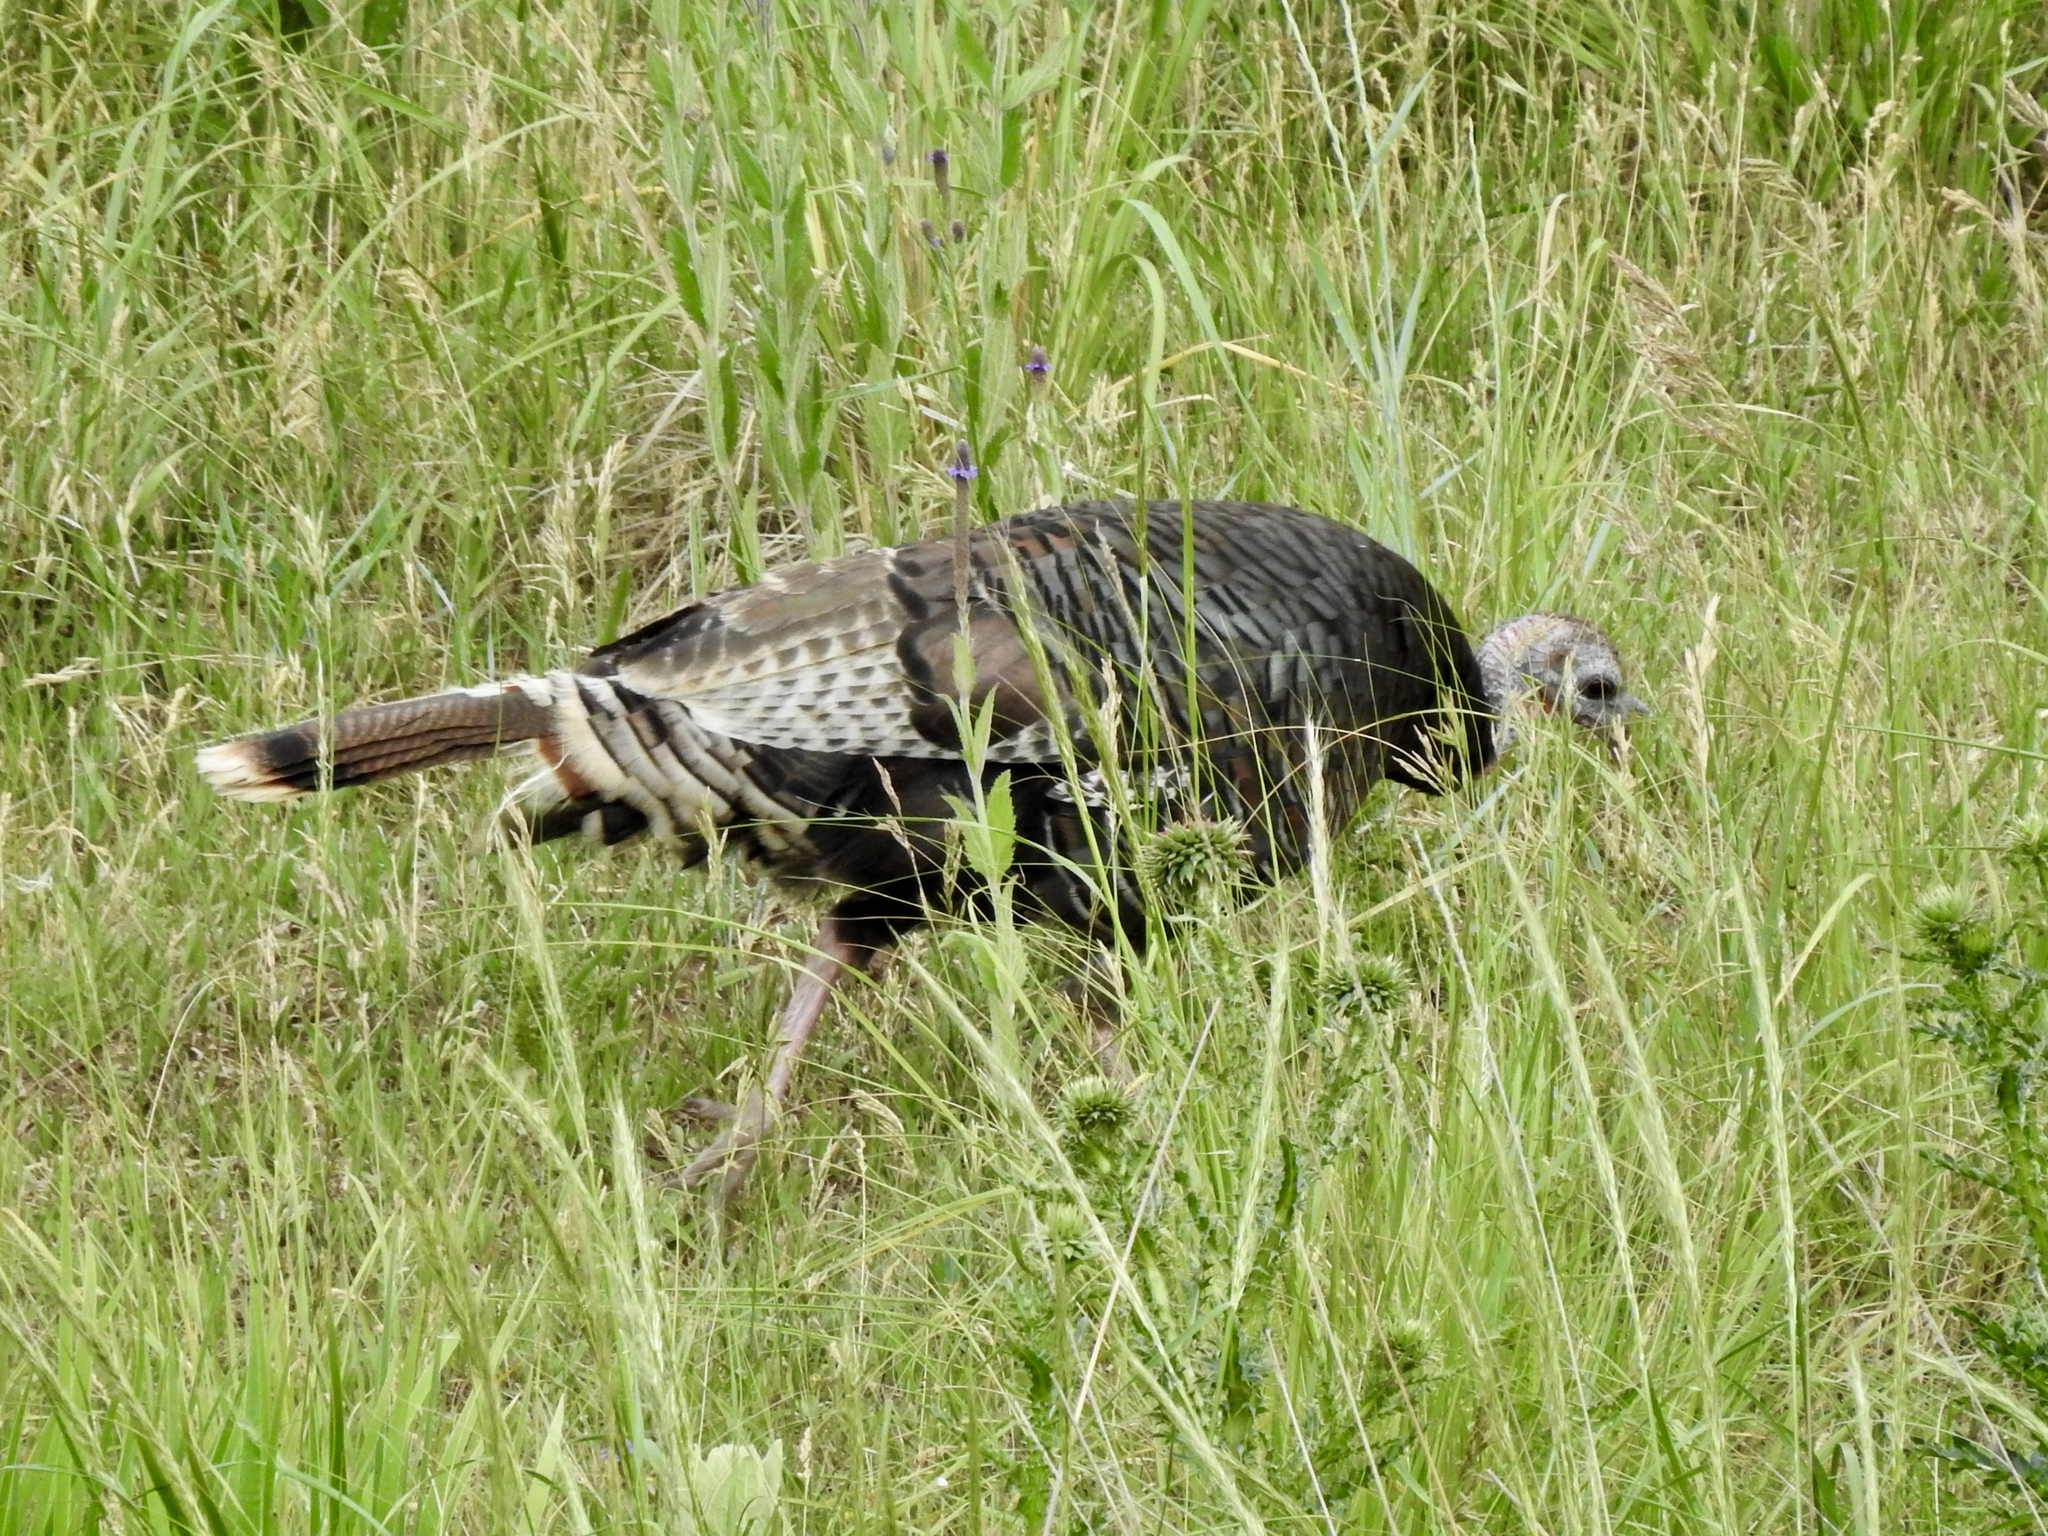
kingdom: Animalia
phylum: Chordata
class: Aves
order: Galliformes
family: Phasianidae
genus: Meleagris
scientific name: Meleagris gallopavo
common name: Wild turkey
